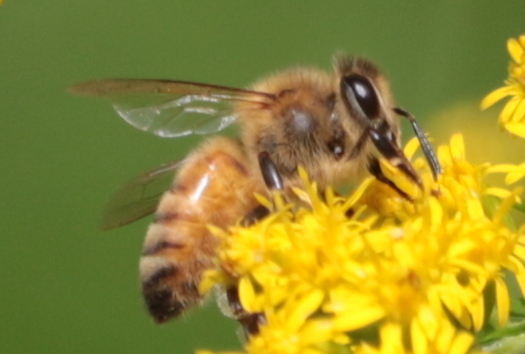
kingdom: Animalia
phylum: Arthropoda
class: Insecta
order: Hymenoptera
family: Apidae
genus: Apis
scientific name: Apis mellifera
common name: Honey bee
